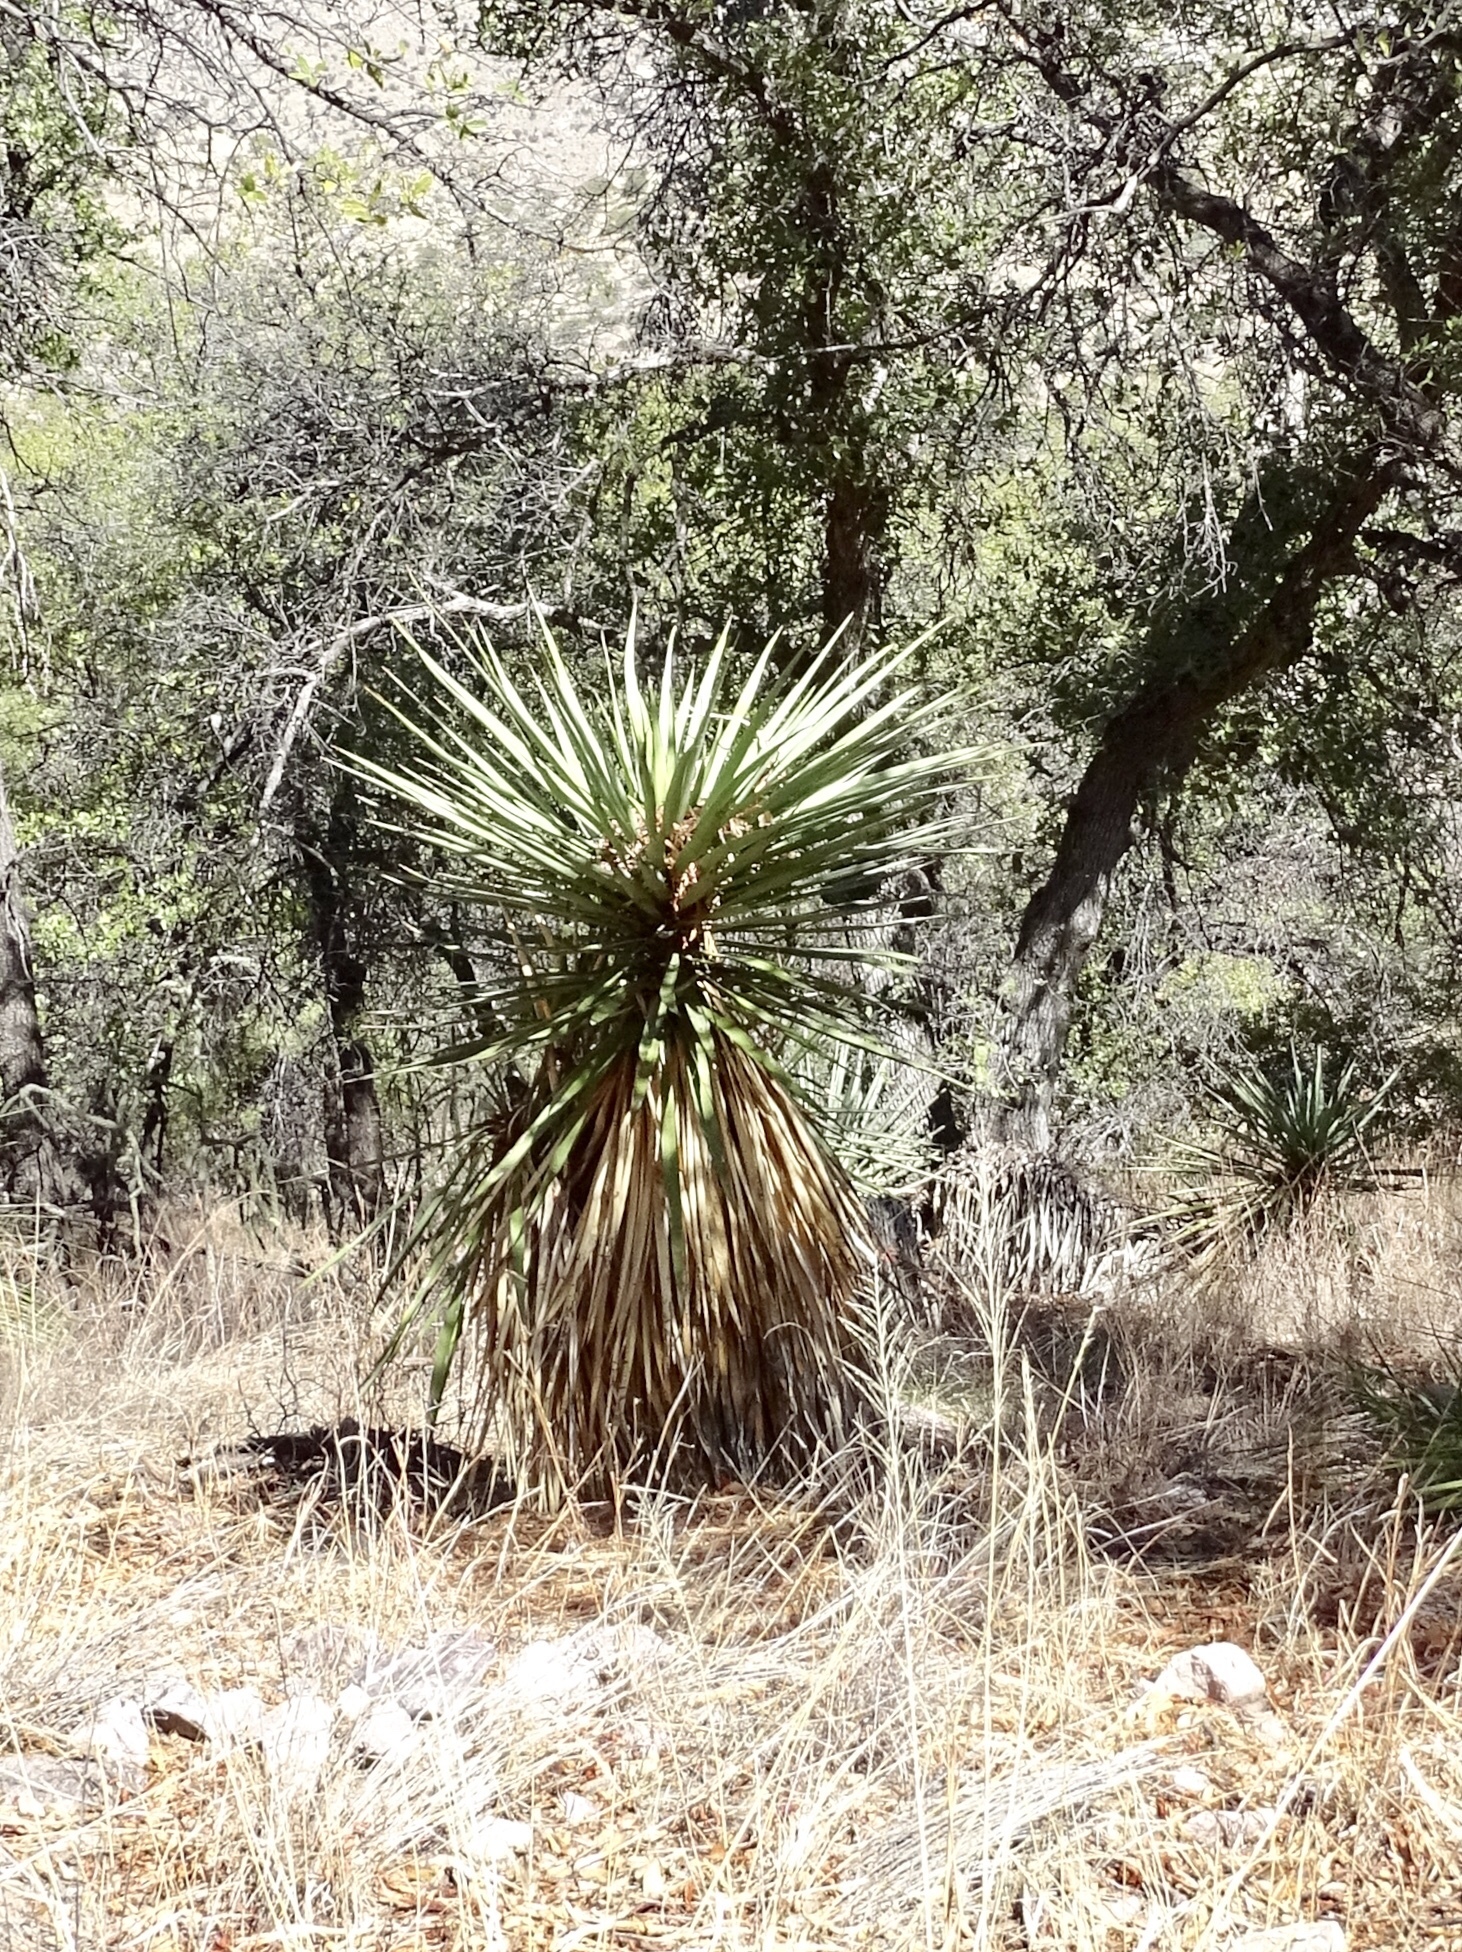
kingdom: Plantae
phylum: Tracheophyta
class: Liliopsida
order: Asparagales
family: Asparagaceae
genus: Yucca
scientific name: Yucca madrensis
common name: Hoary yucca
